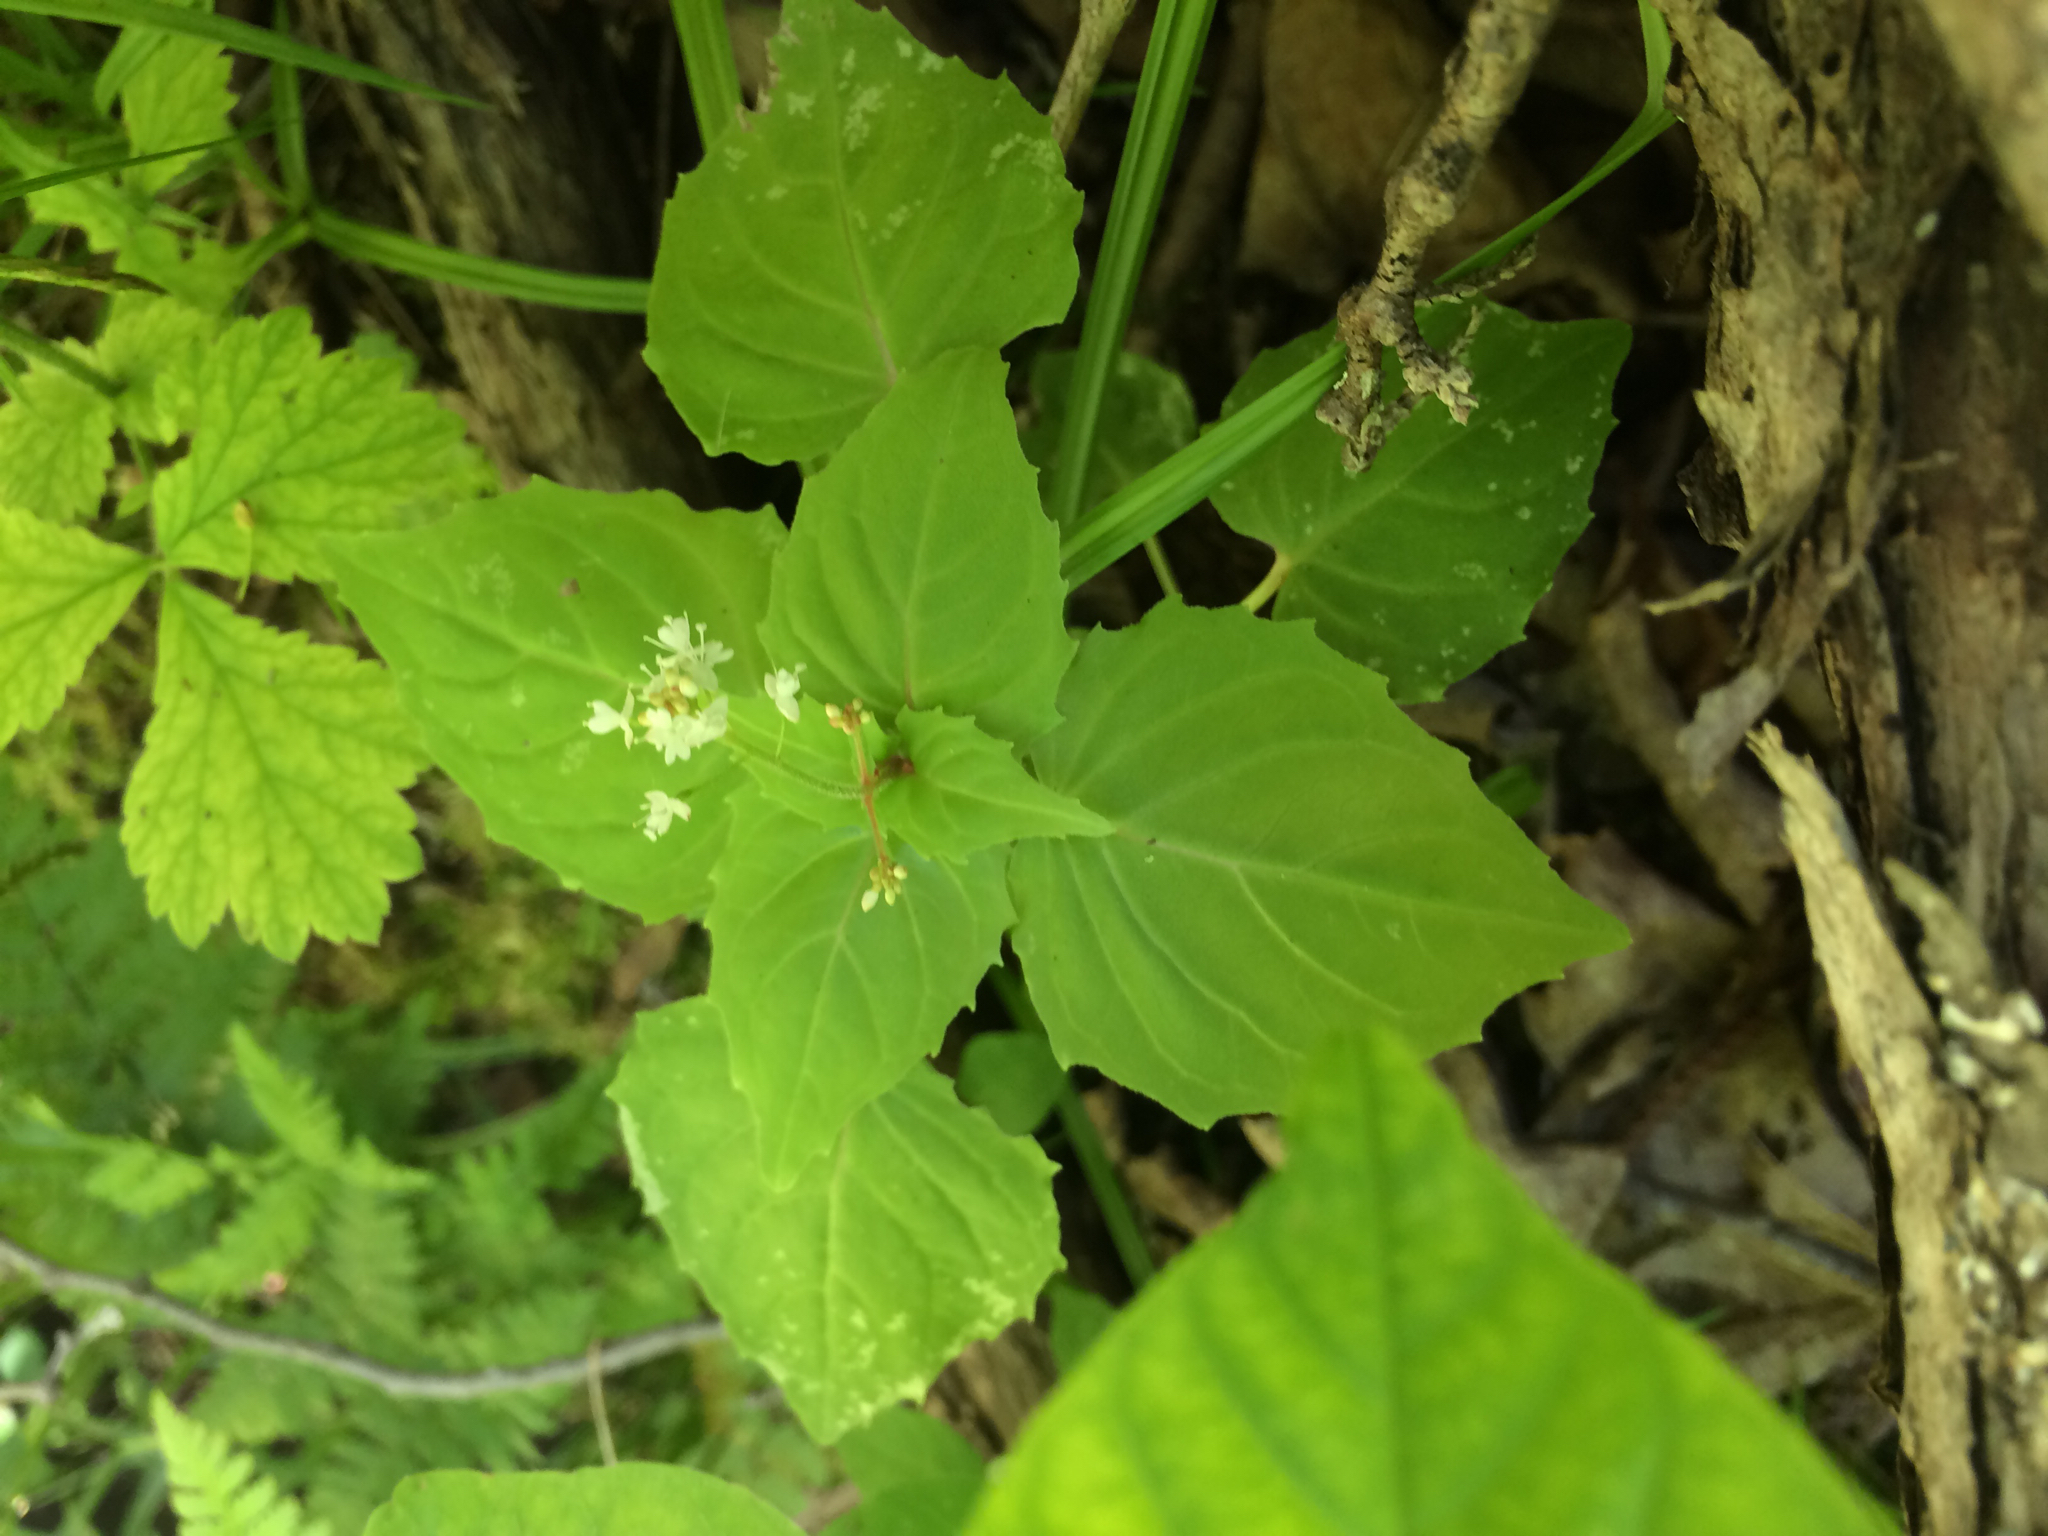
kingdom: Plantae
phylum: Tracheophyta
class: Magnoliopsida
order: Myrtales
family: Onagraceae
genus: Circaea
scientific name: Circaea alpina
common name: Alpine enchanter's-nightshade
